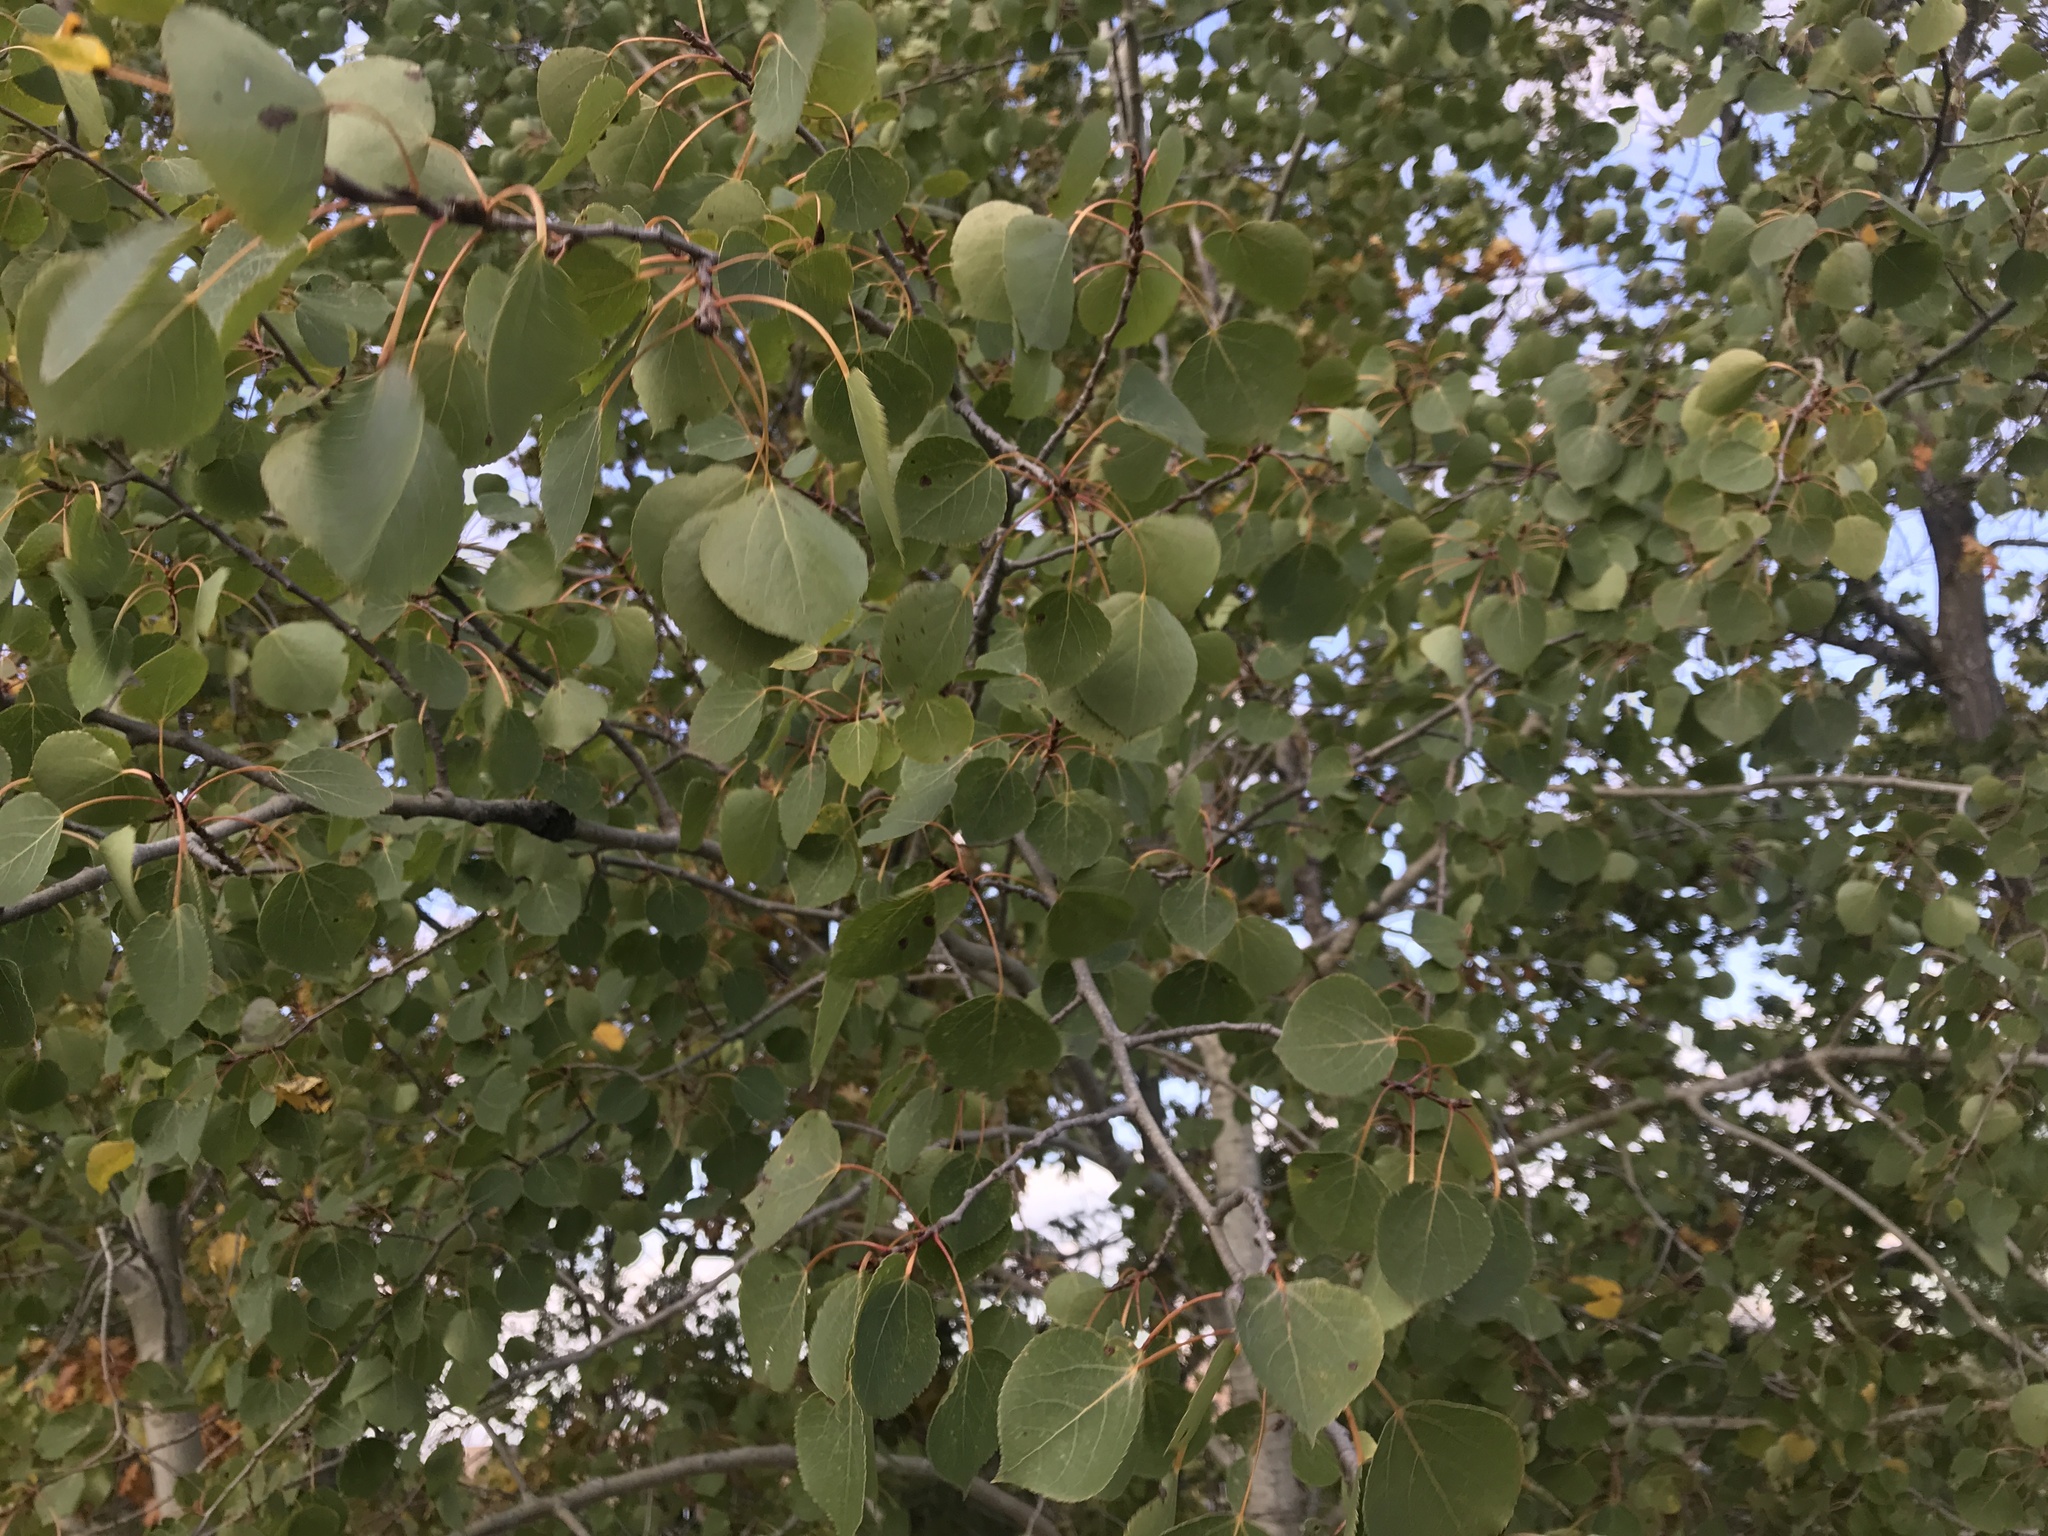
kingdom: Plantae
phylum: Tracheophyta
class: Magnoliopsida
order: Malpighiales
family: Salicaceae
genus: Populus
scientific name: Populus tremuloides
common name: Quaking aspen
